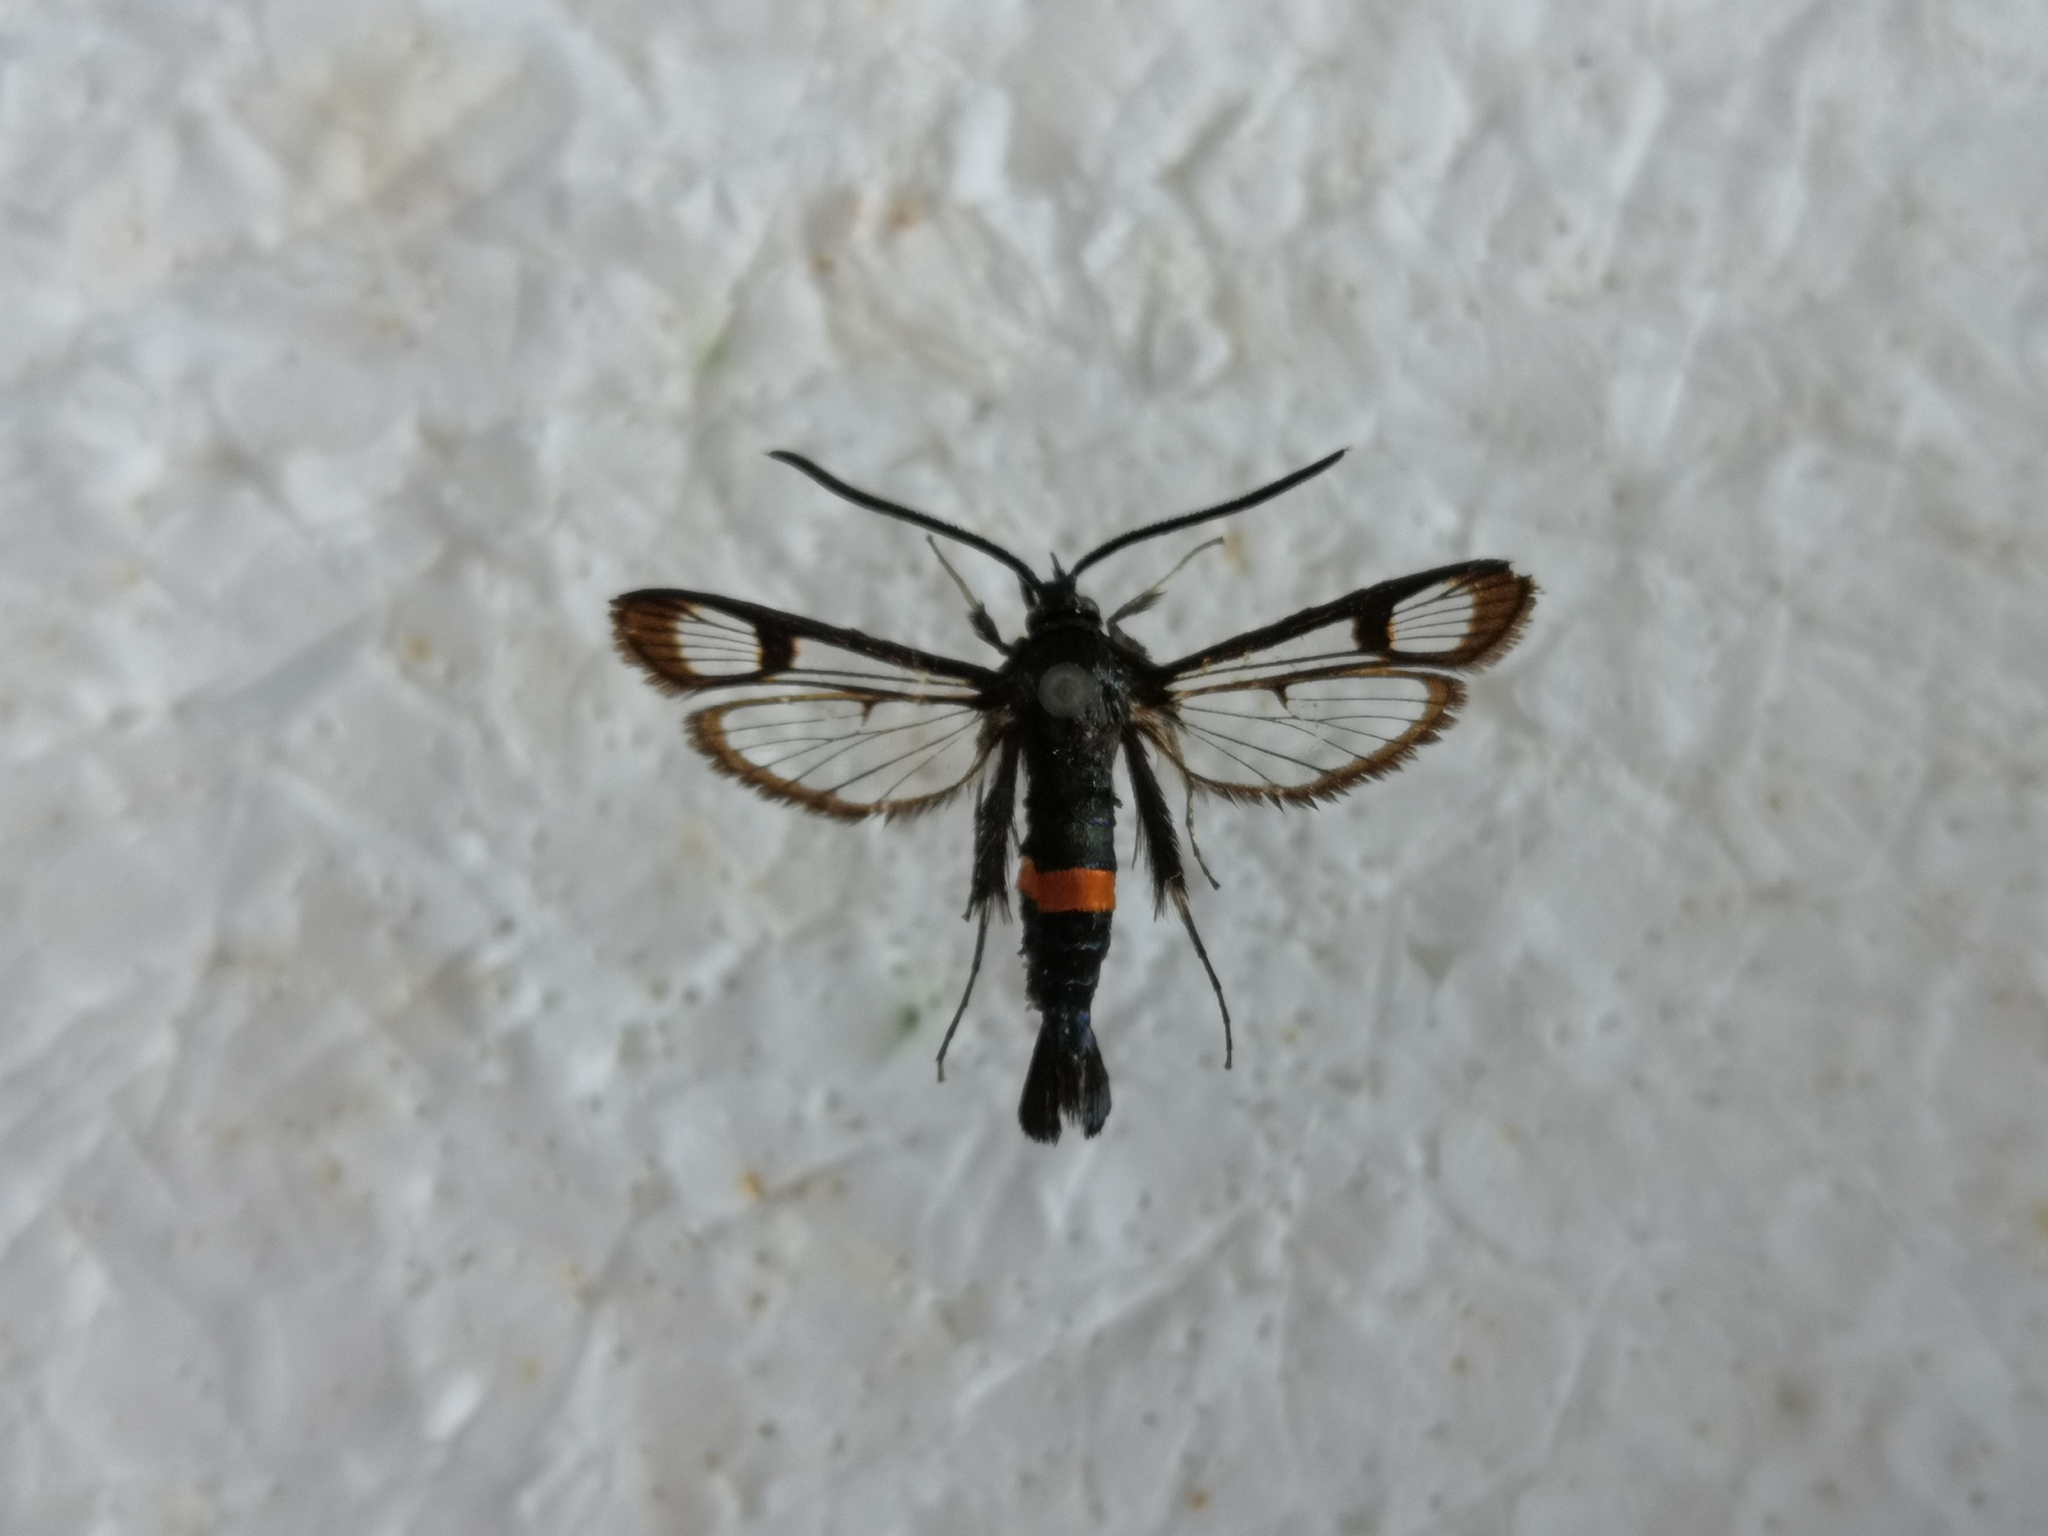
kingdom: Animalia
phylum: Arthropoda
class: Insecta
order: Lepidoptera
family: Sesiidae
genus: Synanthedon
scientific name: Synanthedon myopaeformis
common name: Red-belted clearwing
